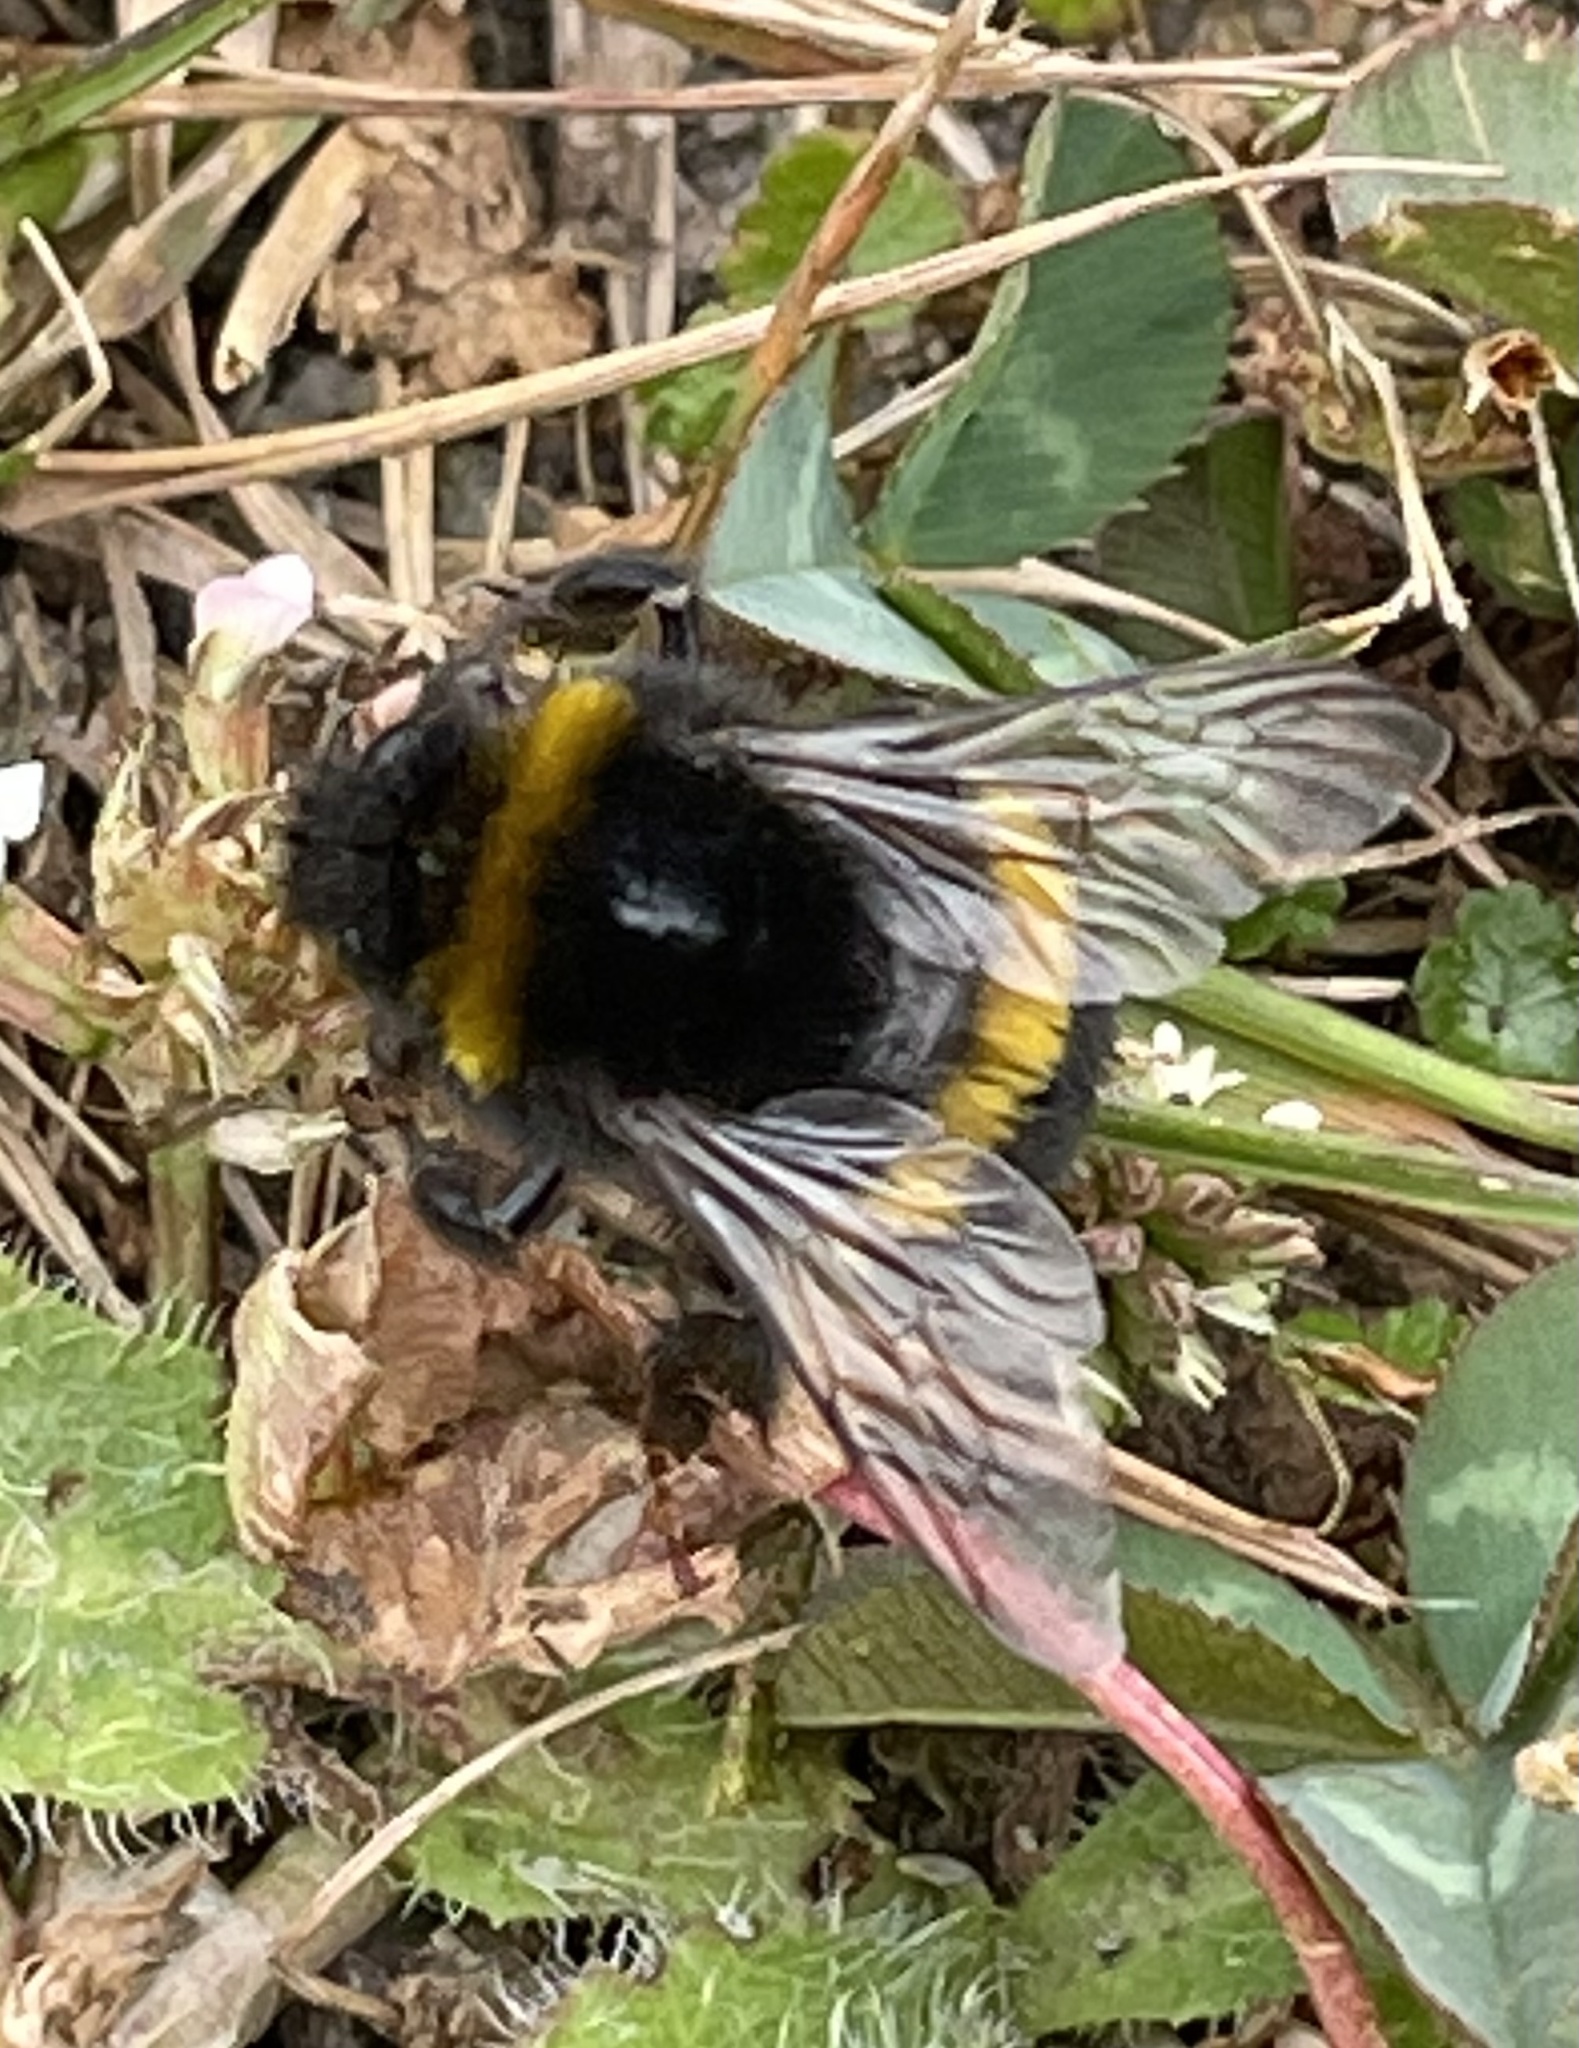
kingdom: Animalia
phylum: Arthropoda
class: Insecta
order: Hymenoptera
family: Apidae
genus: Bombus
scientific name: Bombus terrestris
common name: Buff-tailed bumblebee
